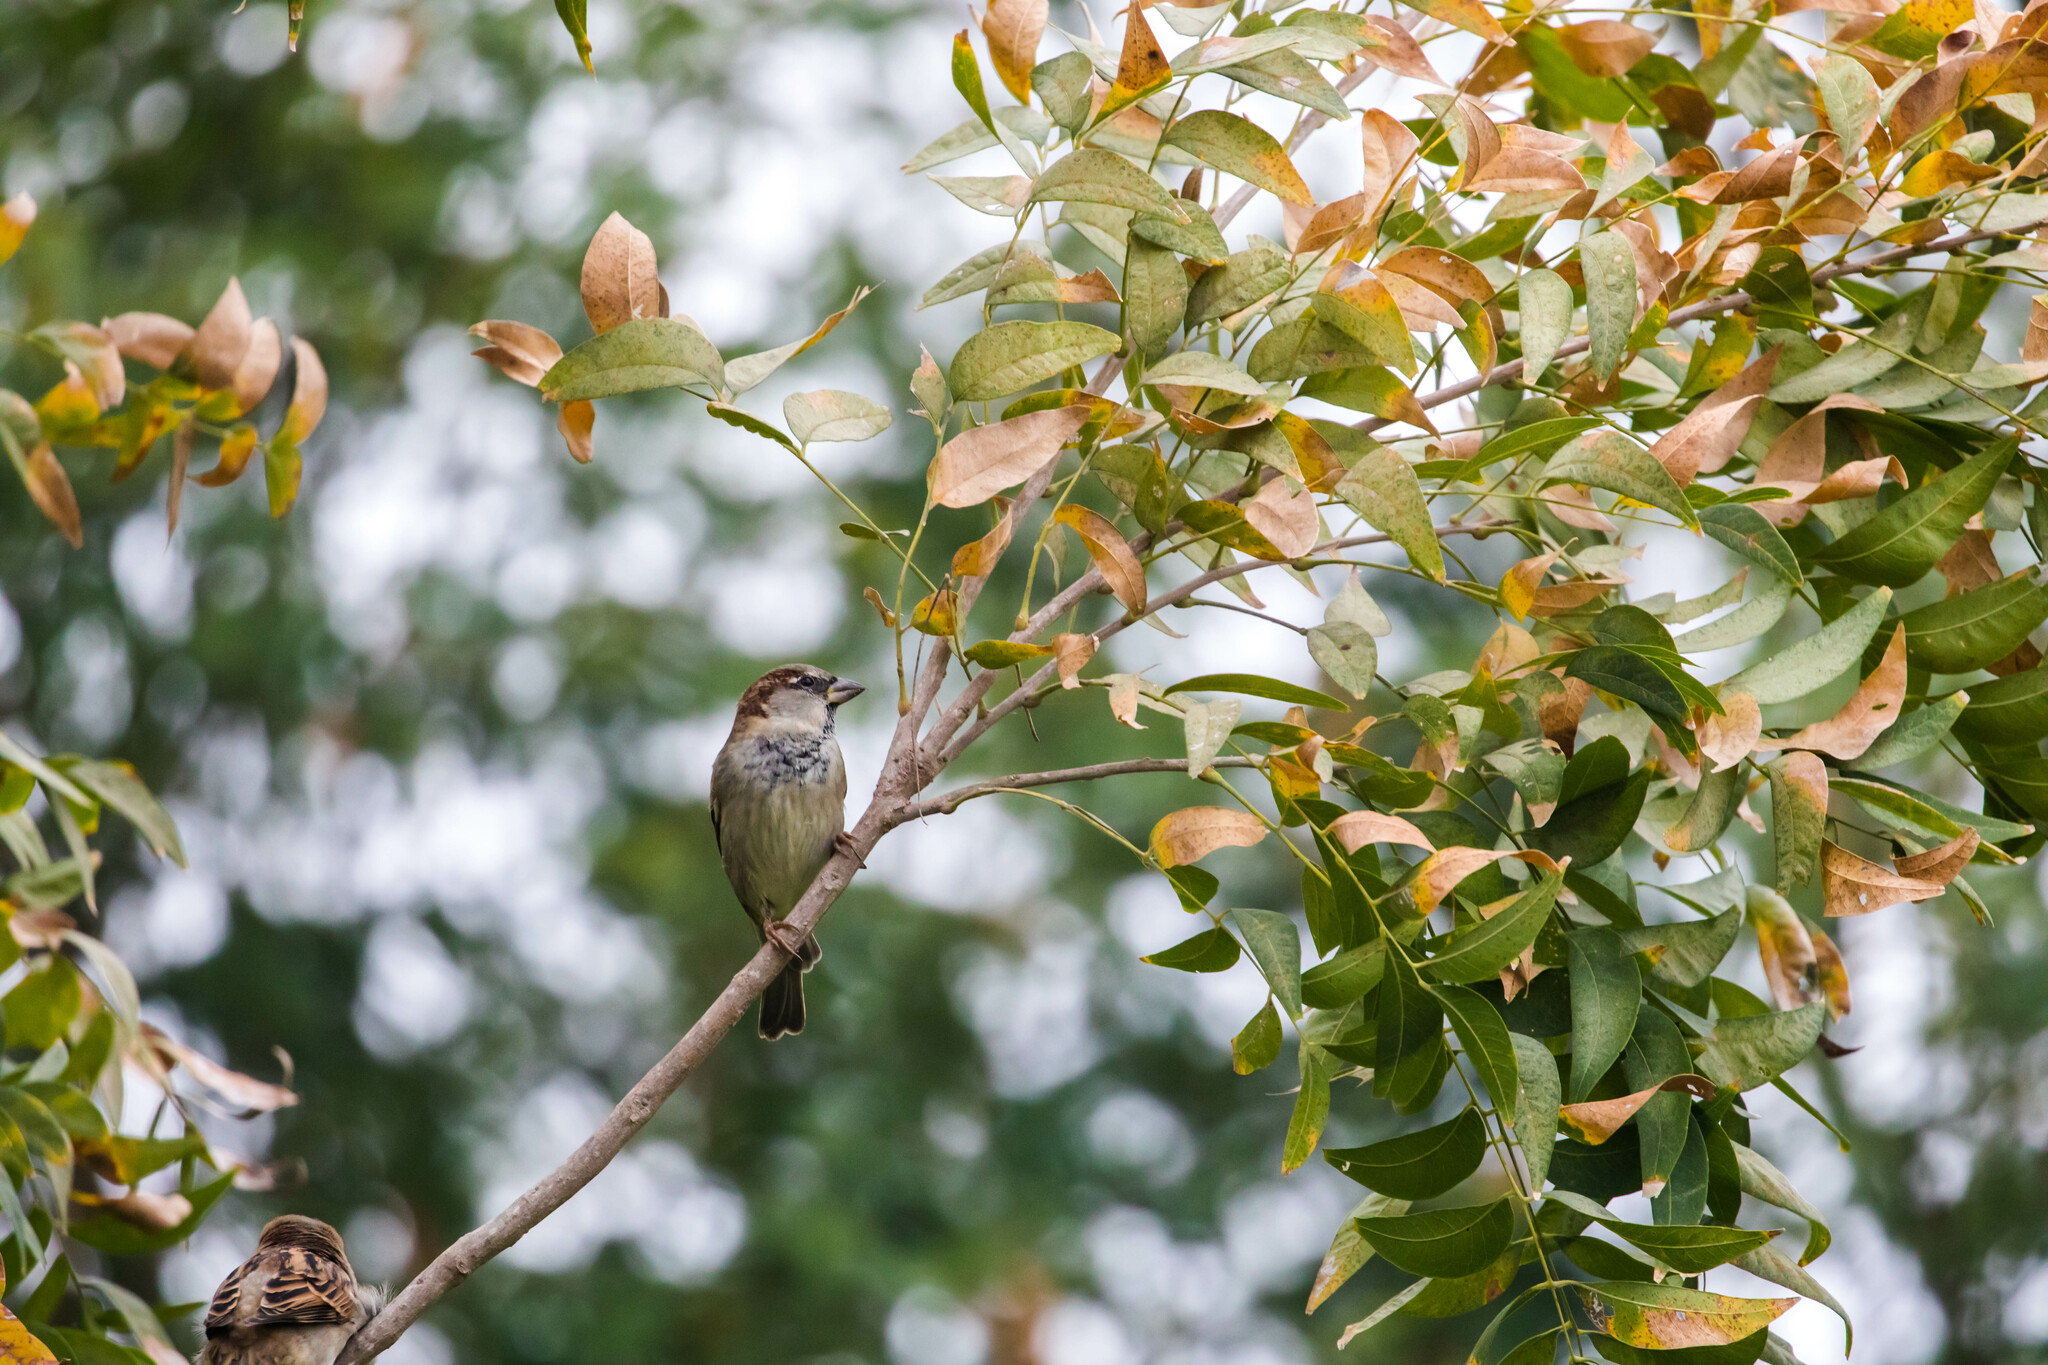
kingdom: Animalia
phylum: Chordata
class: Aves
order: Passeriformes
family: Passeridae
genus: Passer
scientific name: Passer domesticus
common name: House sparrow
